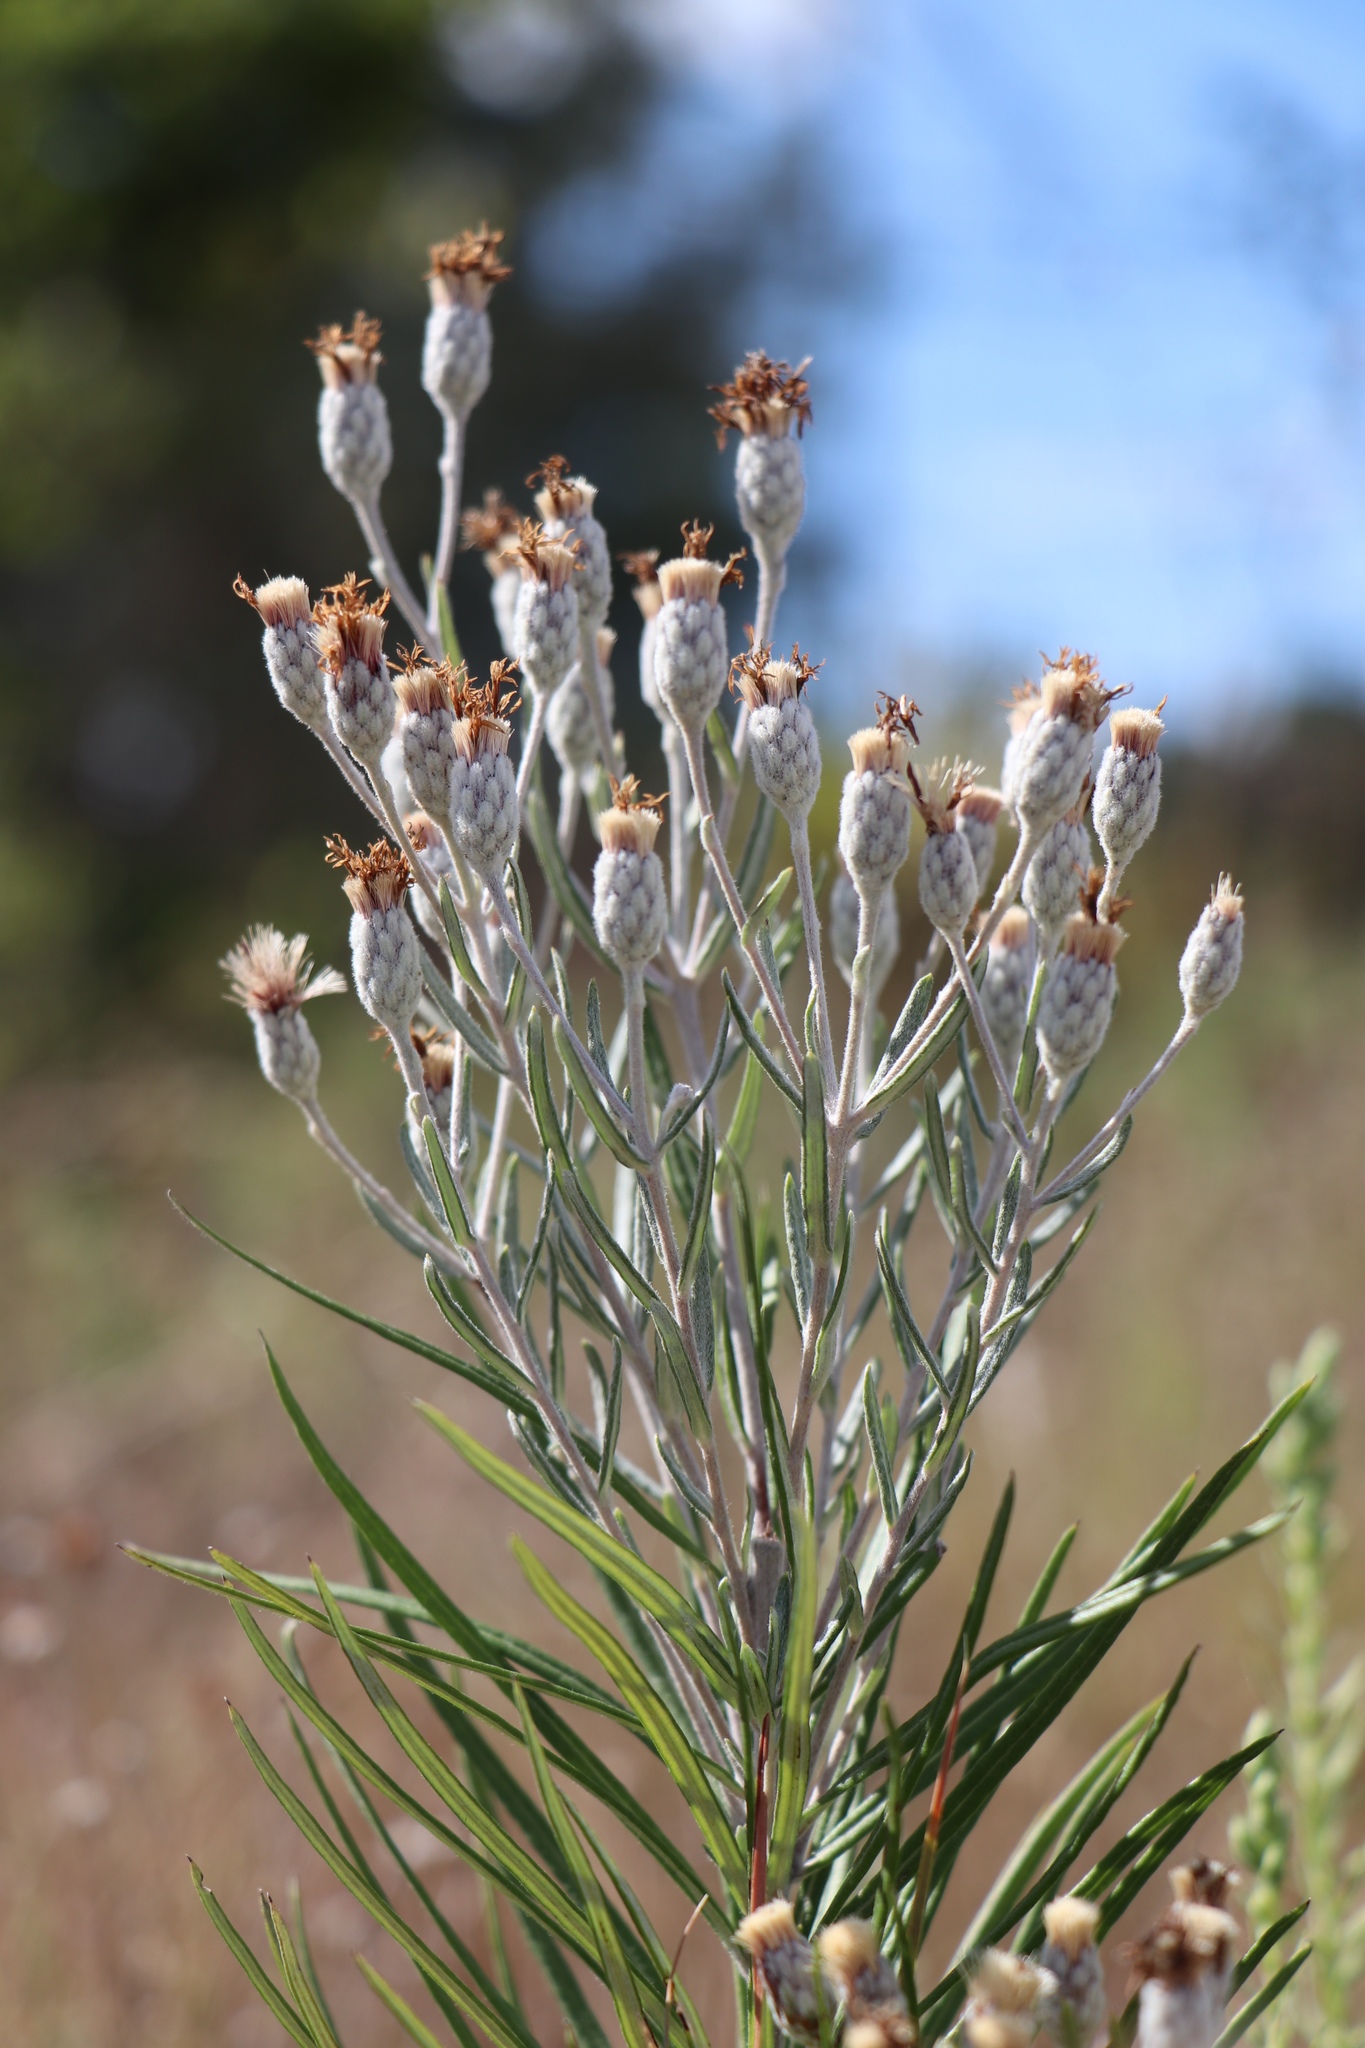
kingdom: Plantae
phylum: Tracheophyta
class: Magnoliopsida
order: Asterales
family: Asteraceae
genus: Vernonia
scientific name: Vernonia lindheimeri
